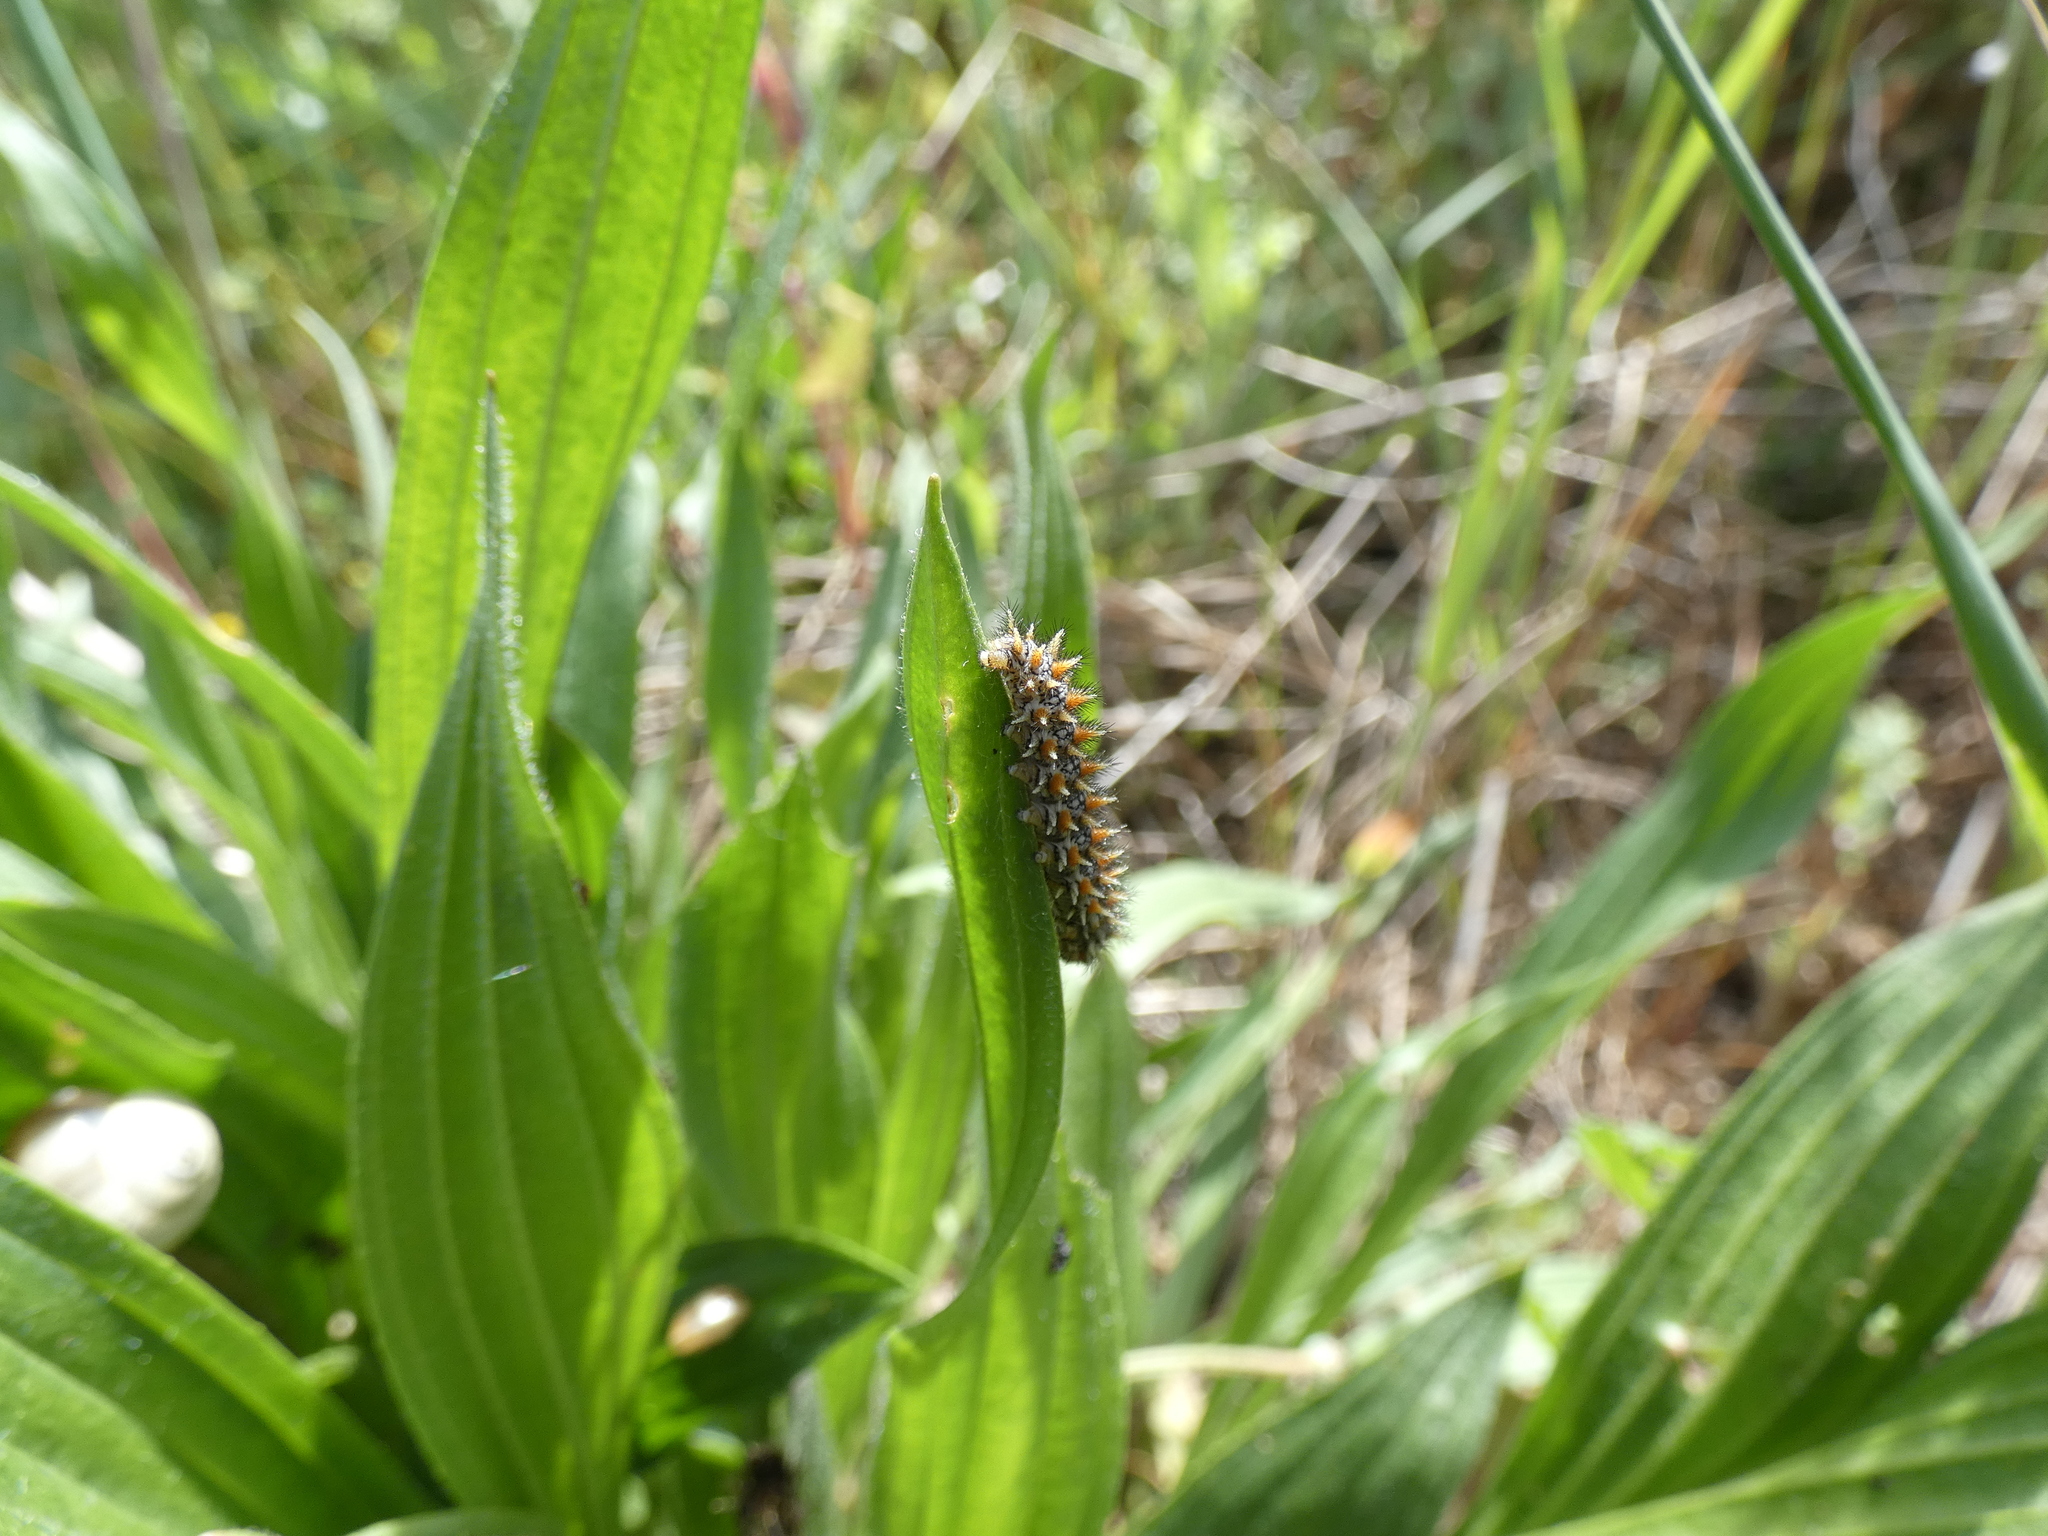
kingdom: Animalia
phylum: Arthropoda
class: Insecta
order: Lepidoptera
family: Nymphalidae
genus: Melitaea
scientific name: Melitaea didyma
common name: Spotted fritillary
